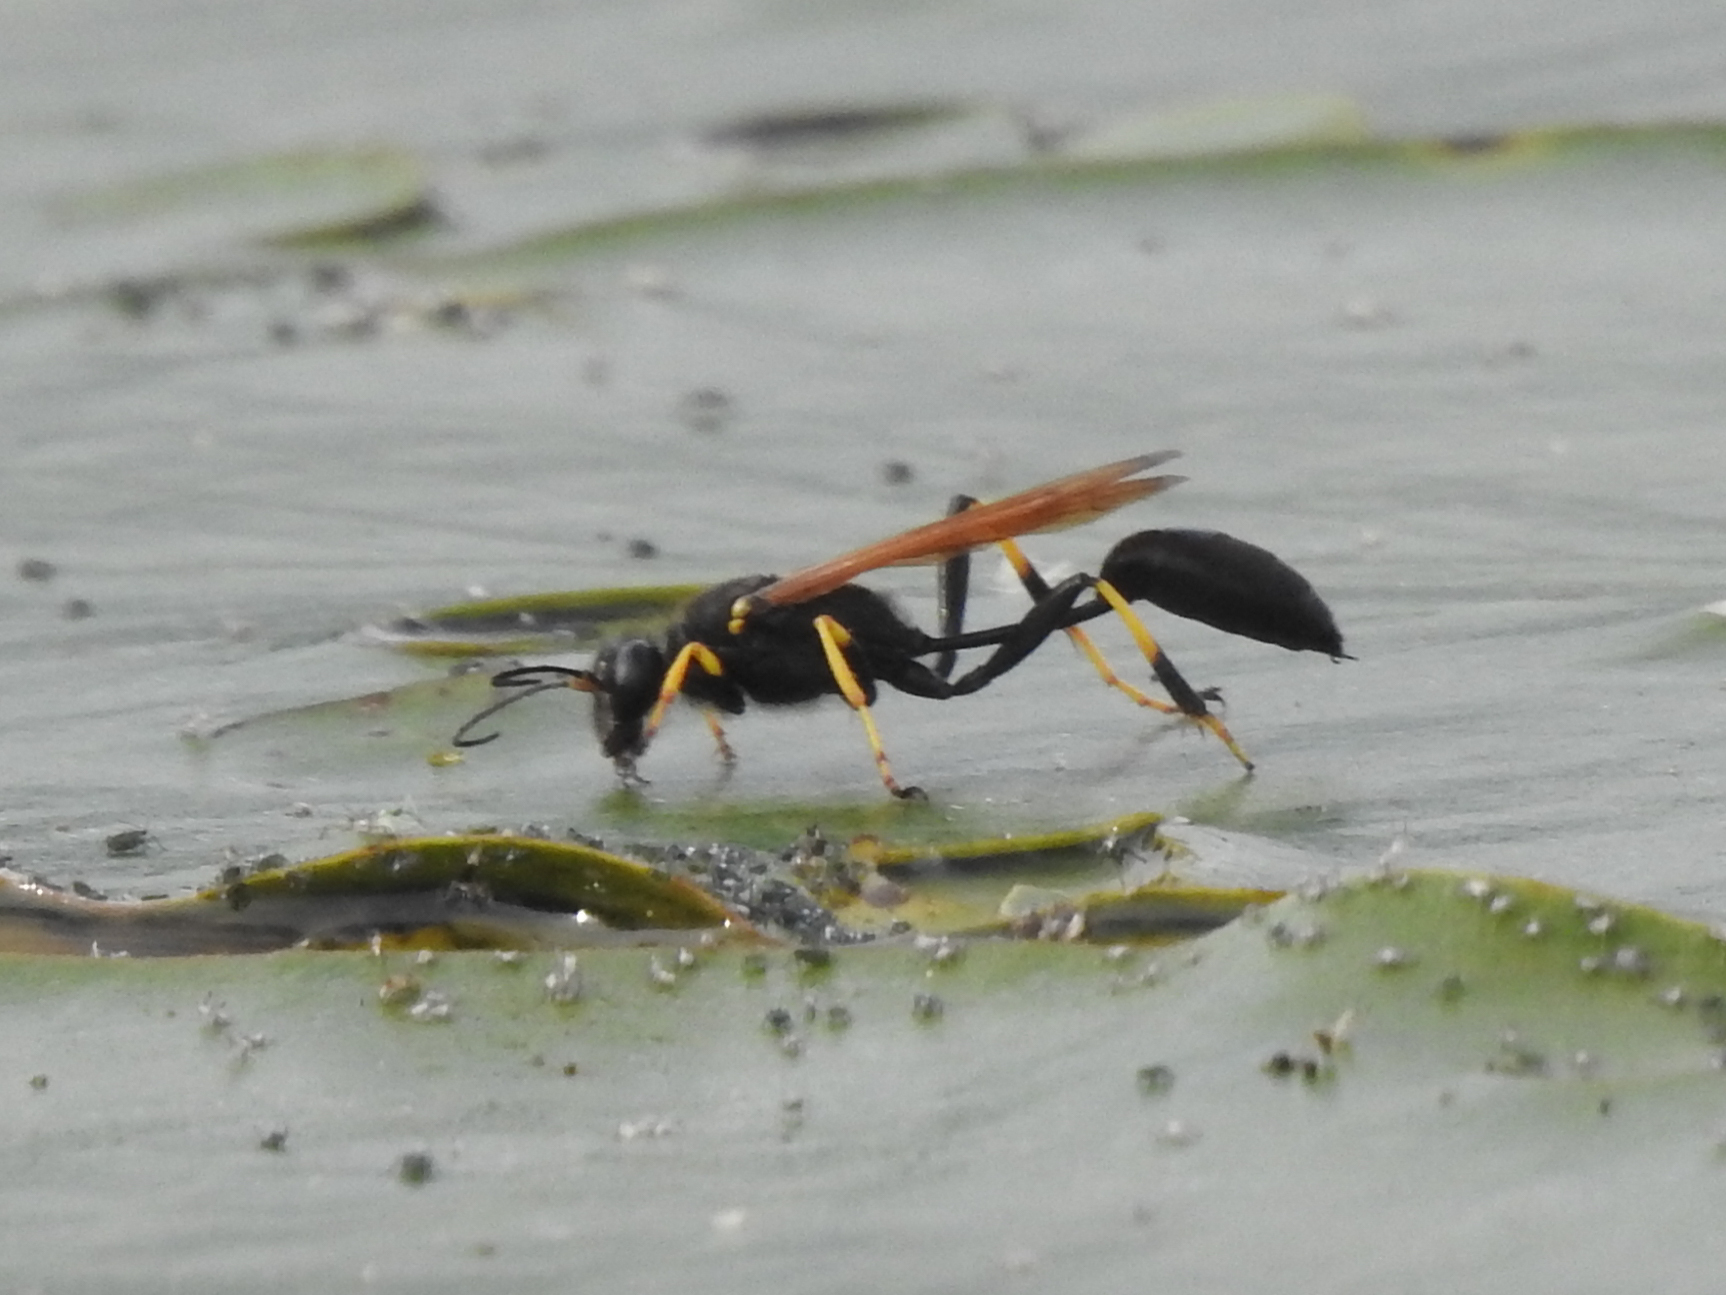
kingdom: Animalia
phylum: Arthropoda
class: Insecta
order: Hymenoptera
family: Sphecidae
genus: Sceliphron
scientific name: Sceliphron caementarium
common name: Mud dauber
